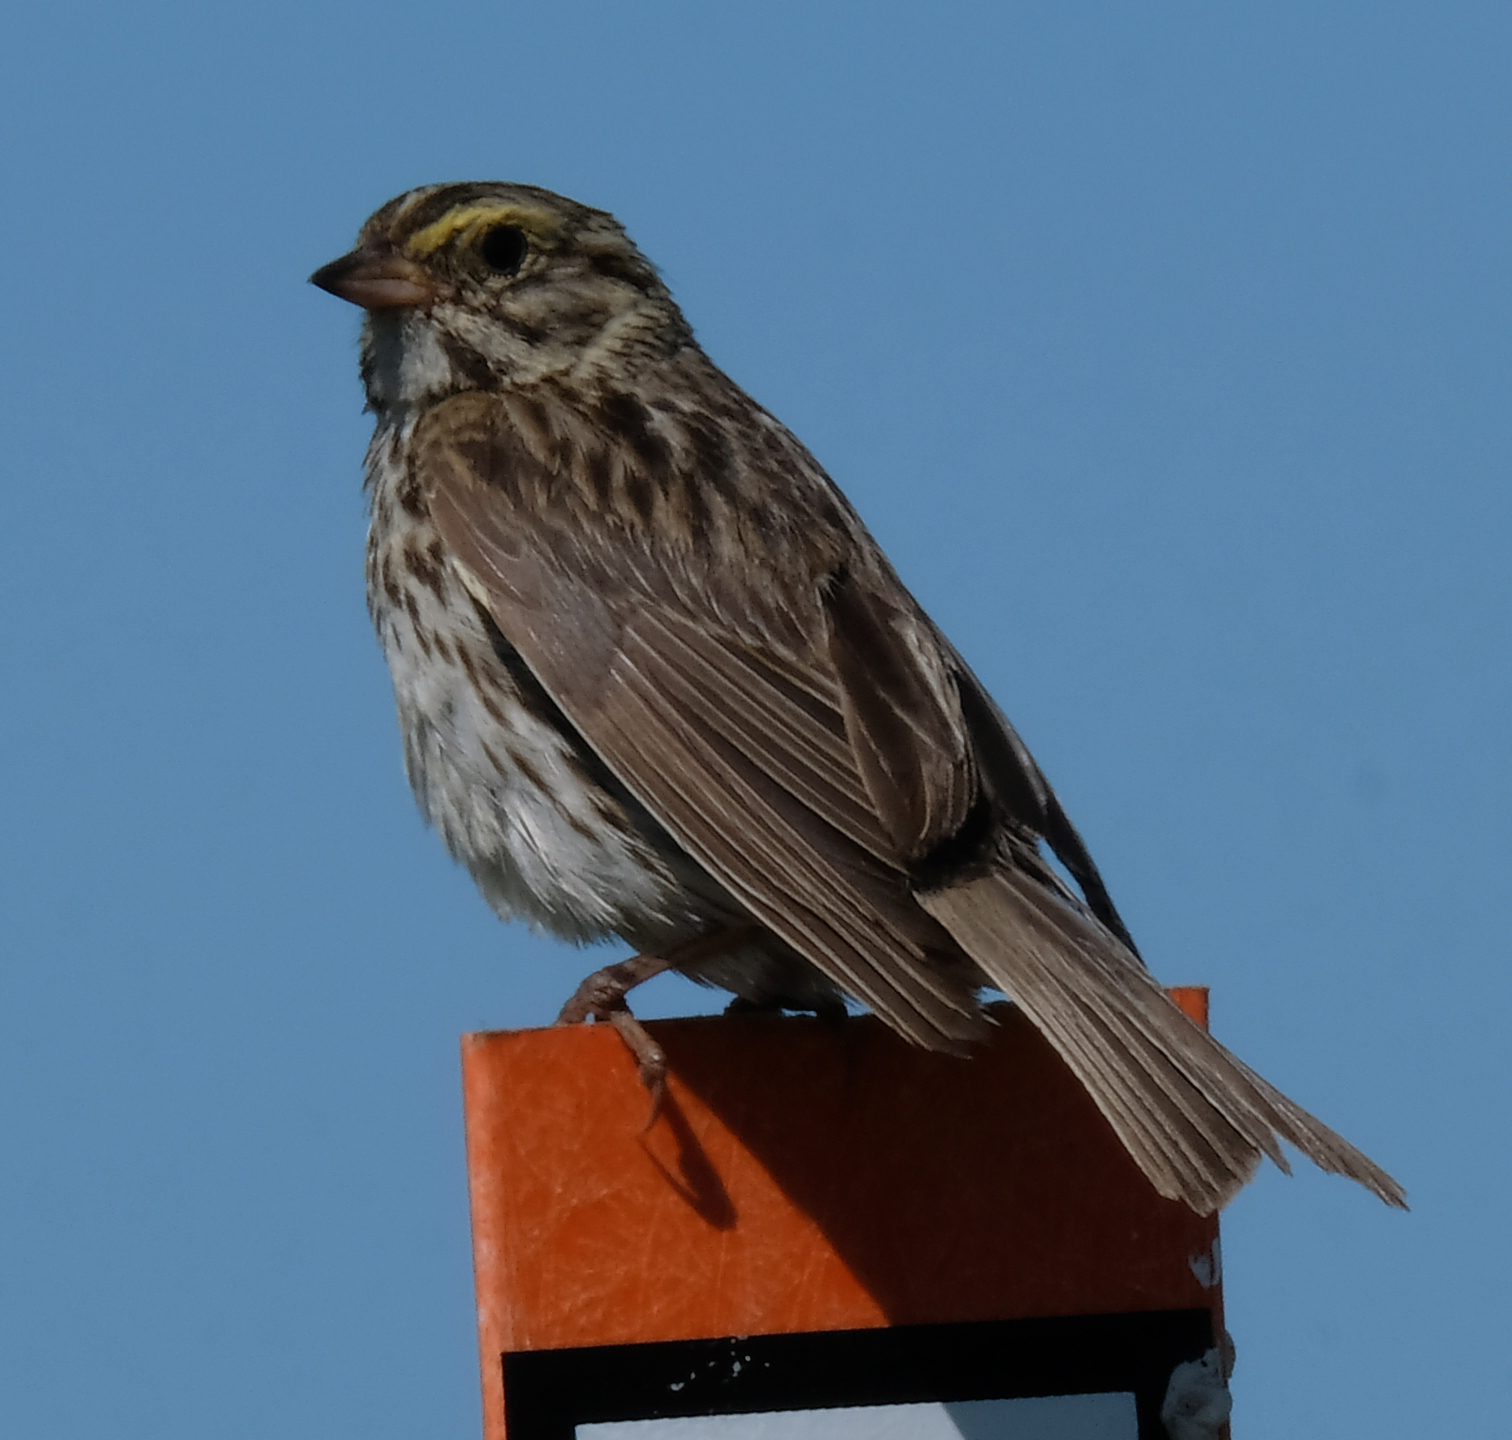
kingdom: Animalia
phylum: Chordata
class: Aves
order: Passeriformes
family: Passerellidae
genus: Passerculus
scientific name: Passerculus sandwichensis
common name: Savannah sparrow
